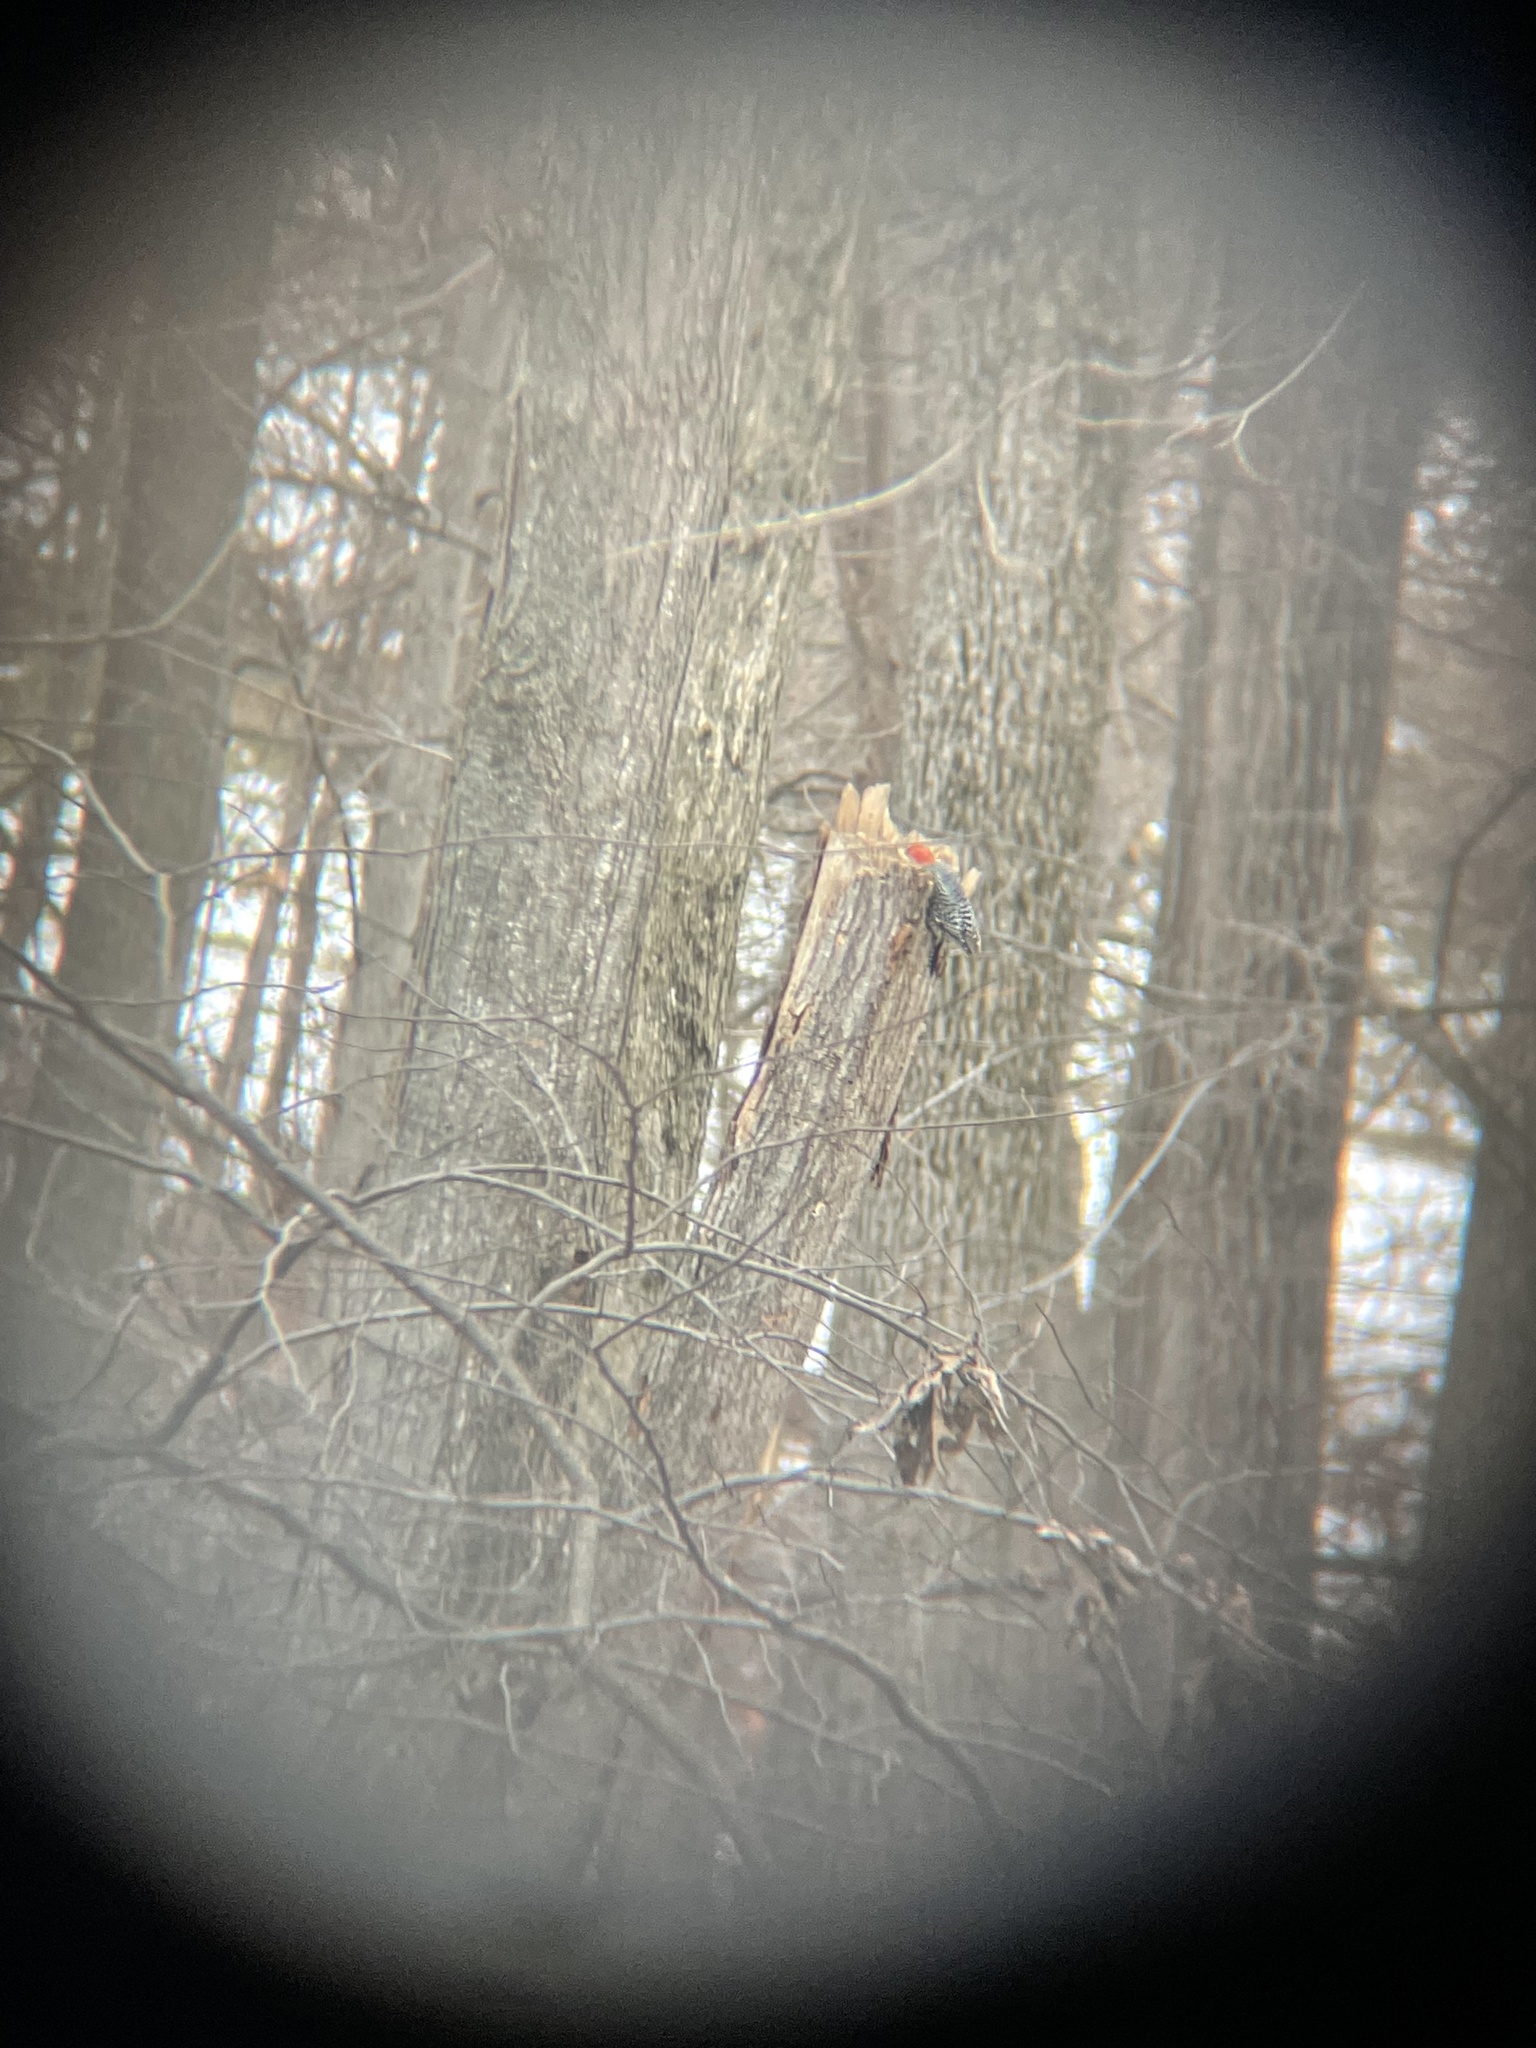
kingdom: Animalia
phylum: Chordata
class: Aves
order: Piciformes
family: Picidae
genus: Melanerpes
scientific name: Melanerpes carolinus
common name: Red-bellied woodpecker
